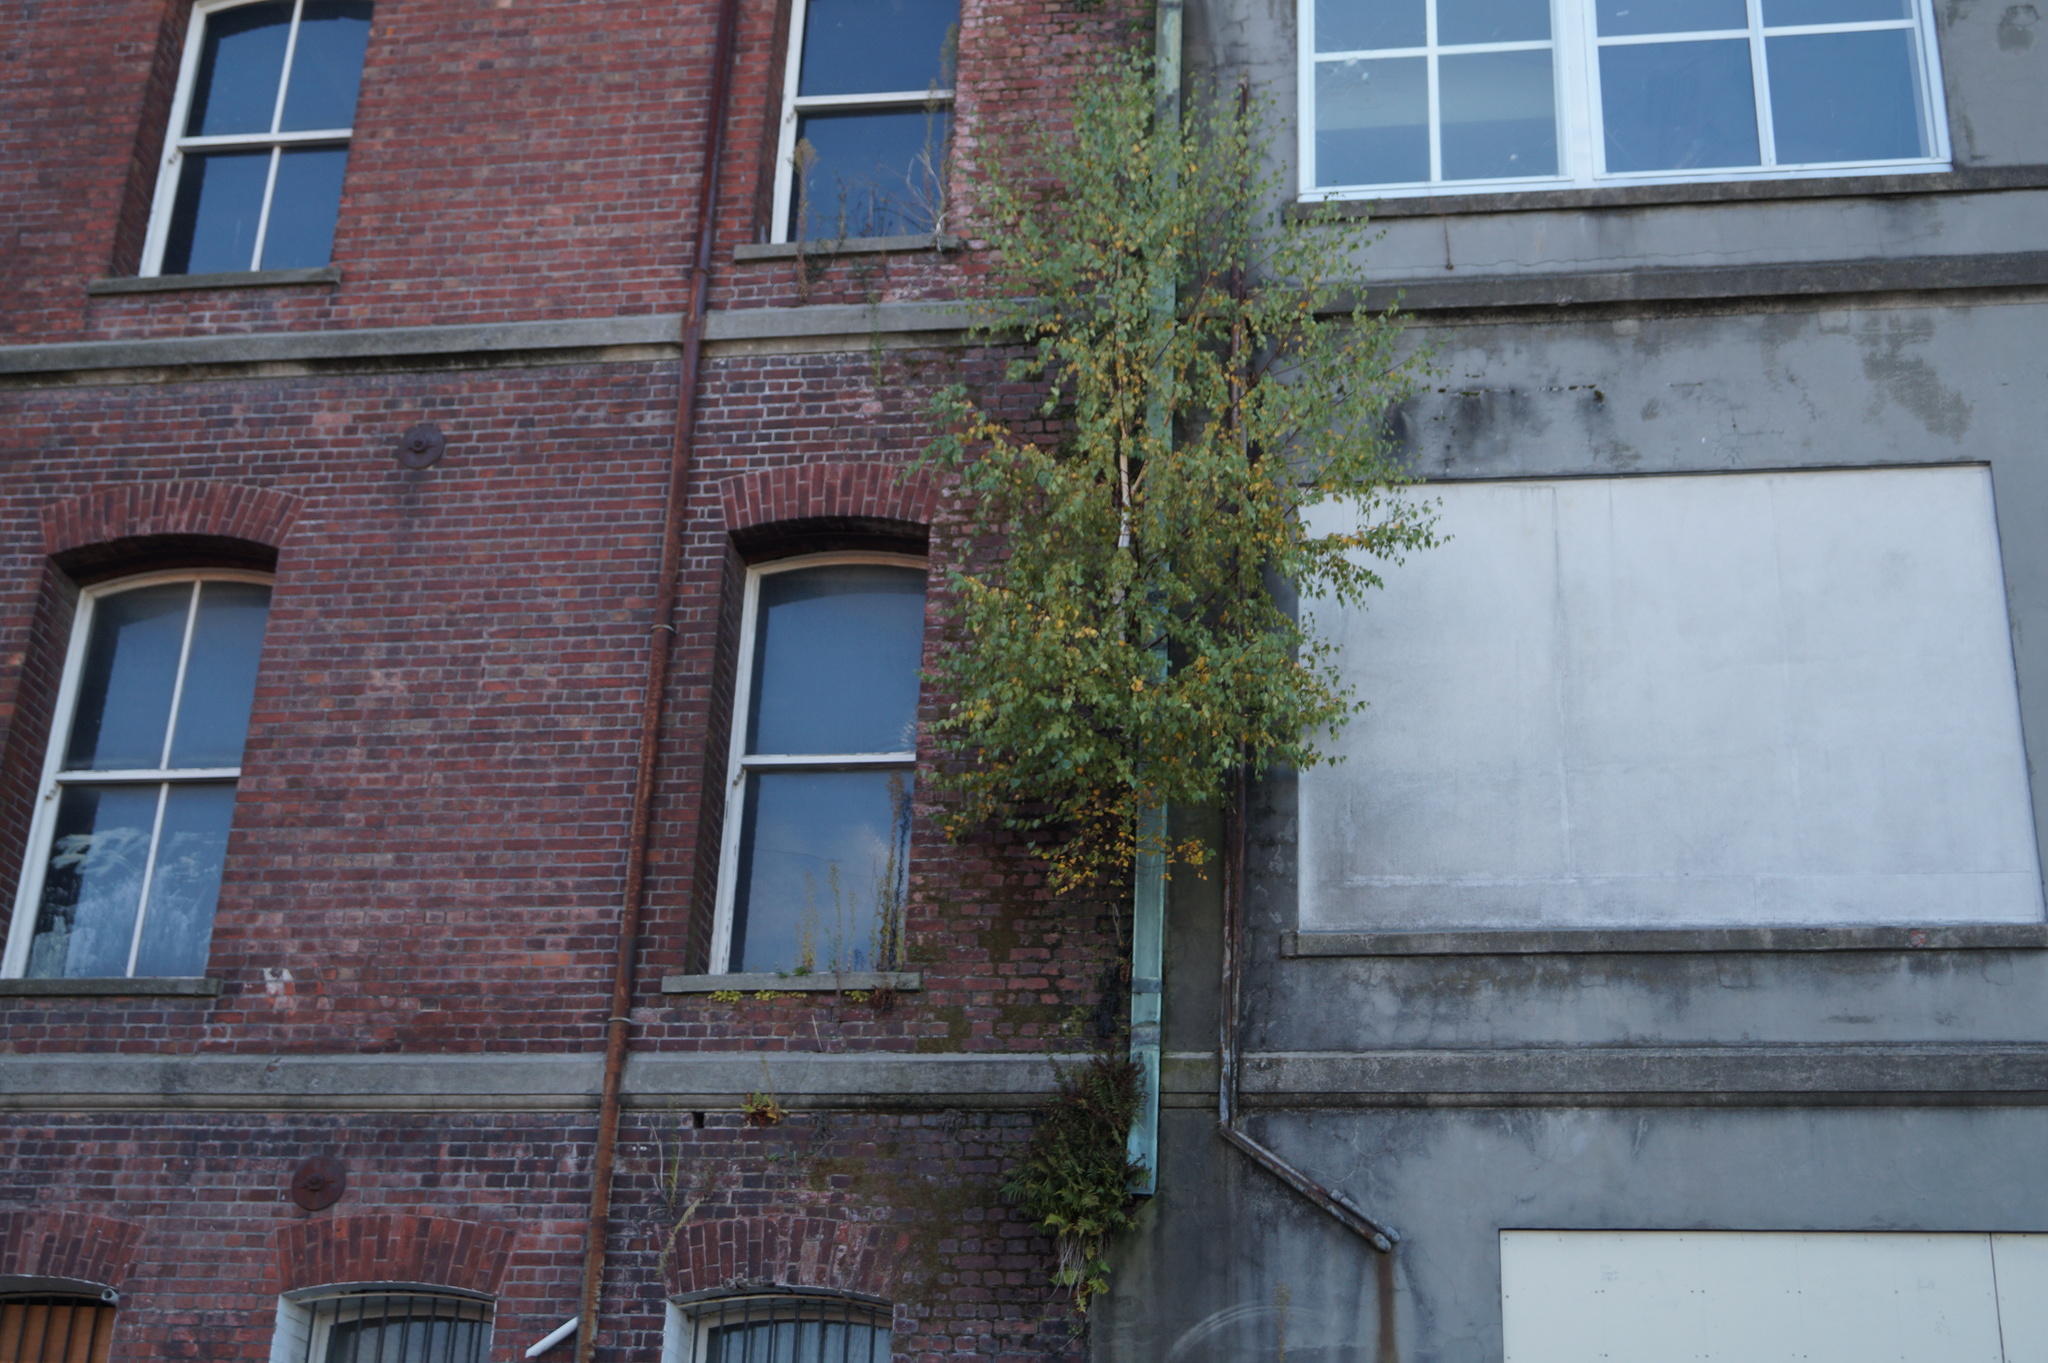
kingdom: Plantae
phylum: Tracheophyta
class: Magnoliopsida
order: Fagales
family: Betulaceae
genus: Betula
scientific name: Betula pendula
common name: Silver birch
